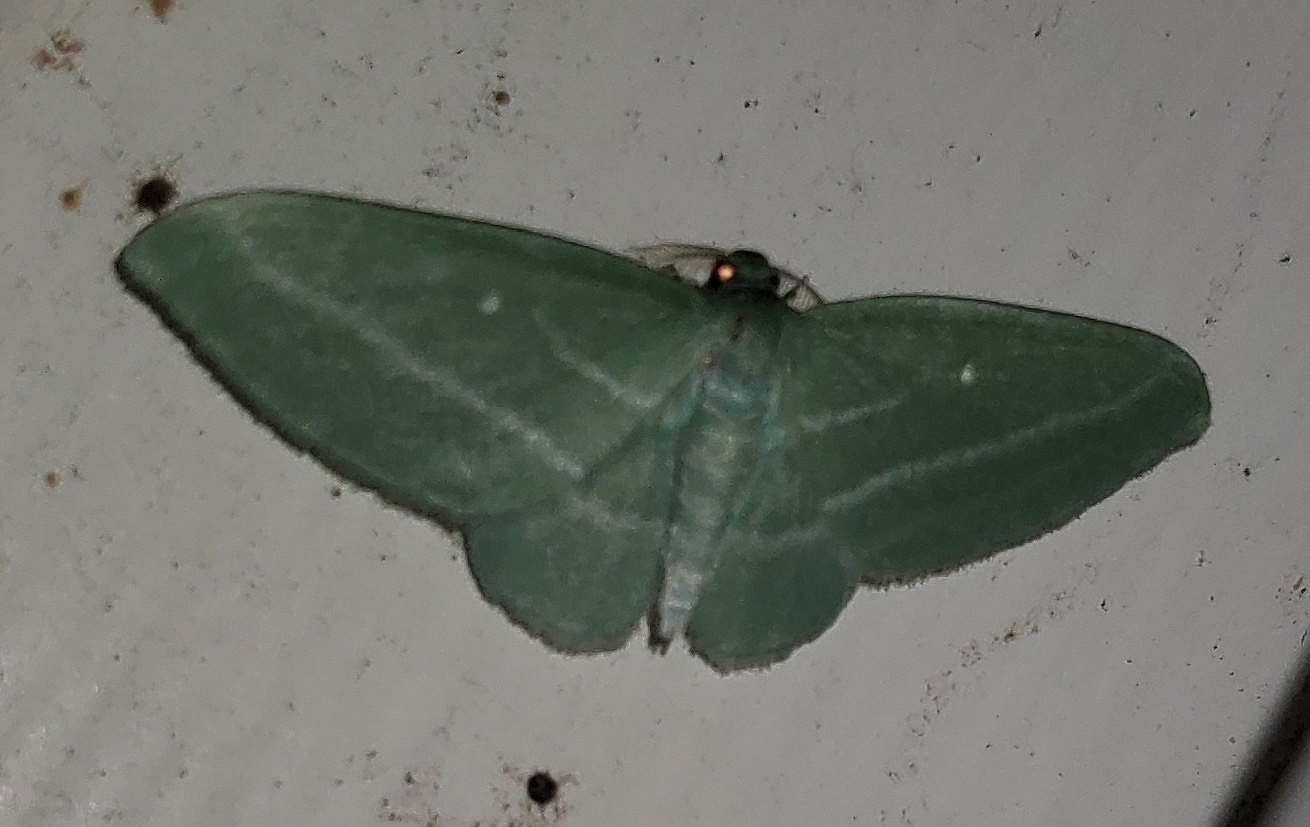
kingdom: Animalia
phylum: Arthropoda
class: Insecta
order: Lepidoptera
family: Geometridae
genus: Dyspteris
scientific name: Dyspteris abortivaria
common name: Bad-wing
